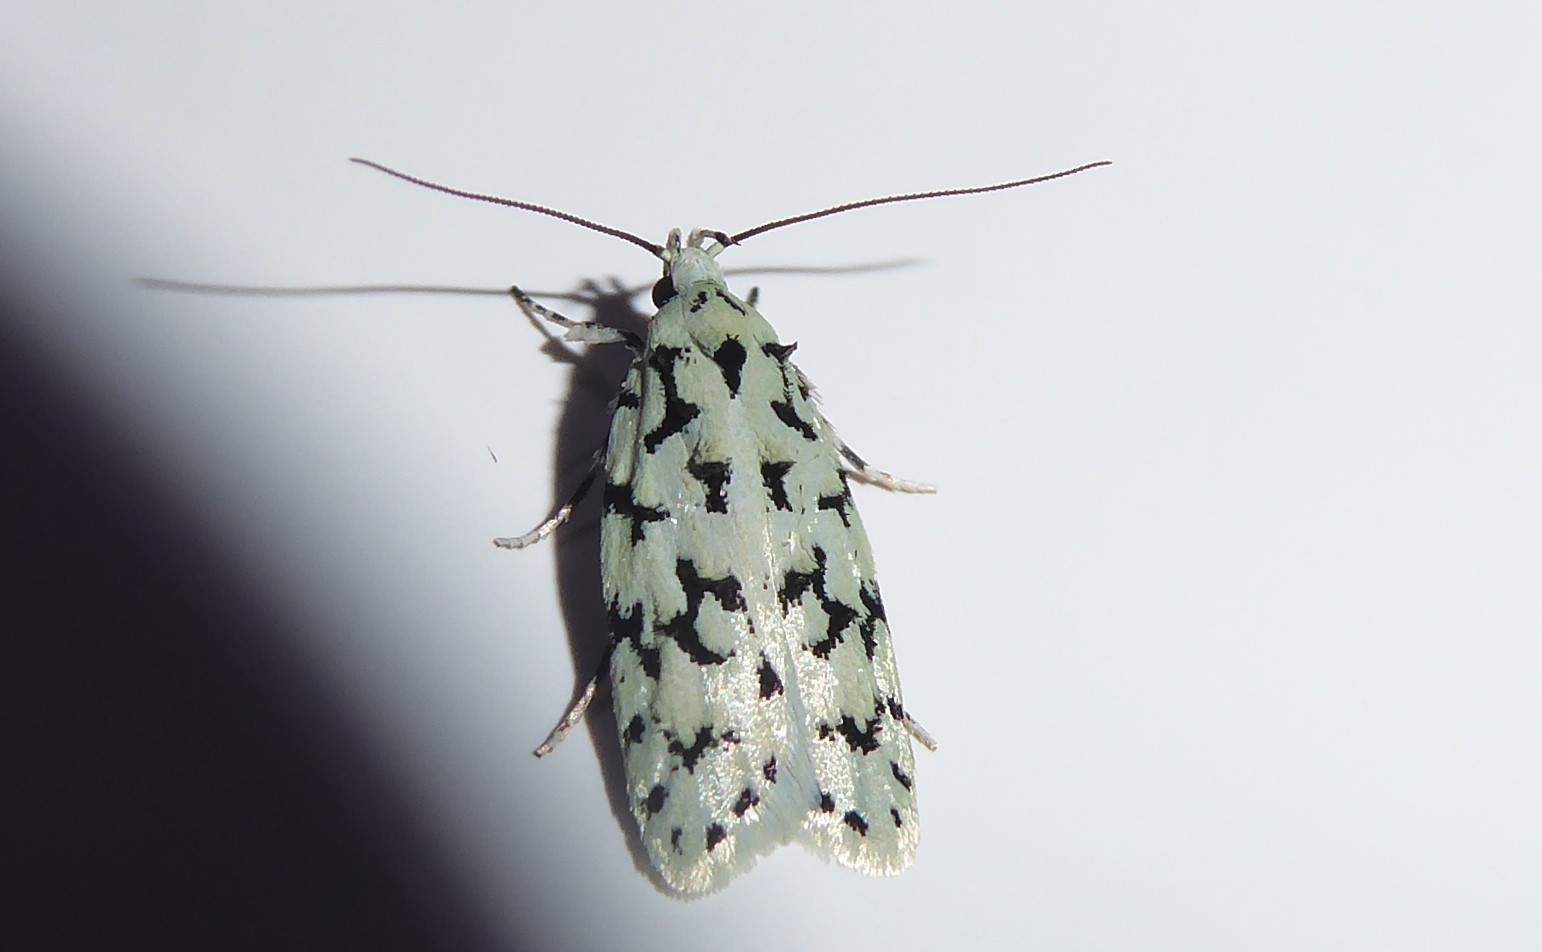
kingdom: Animalia
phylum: Arthropoda
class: Insecta
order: Lepidoptera
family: Oecophoridae
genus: Izatha
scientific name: Izatha huttoni
